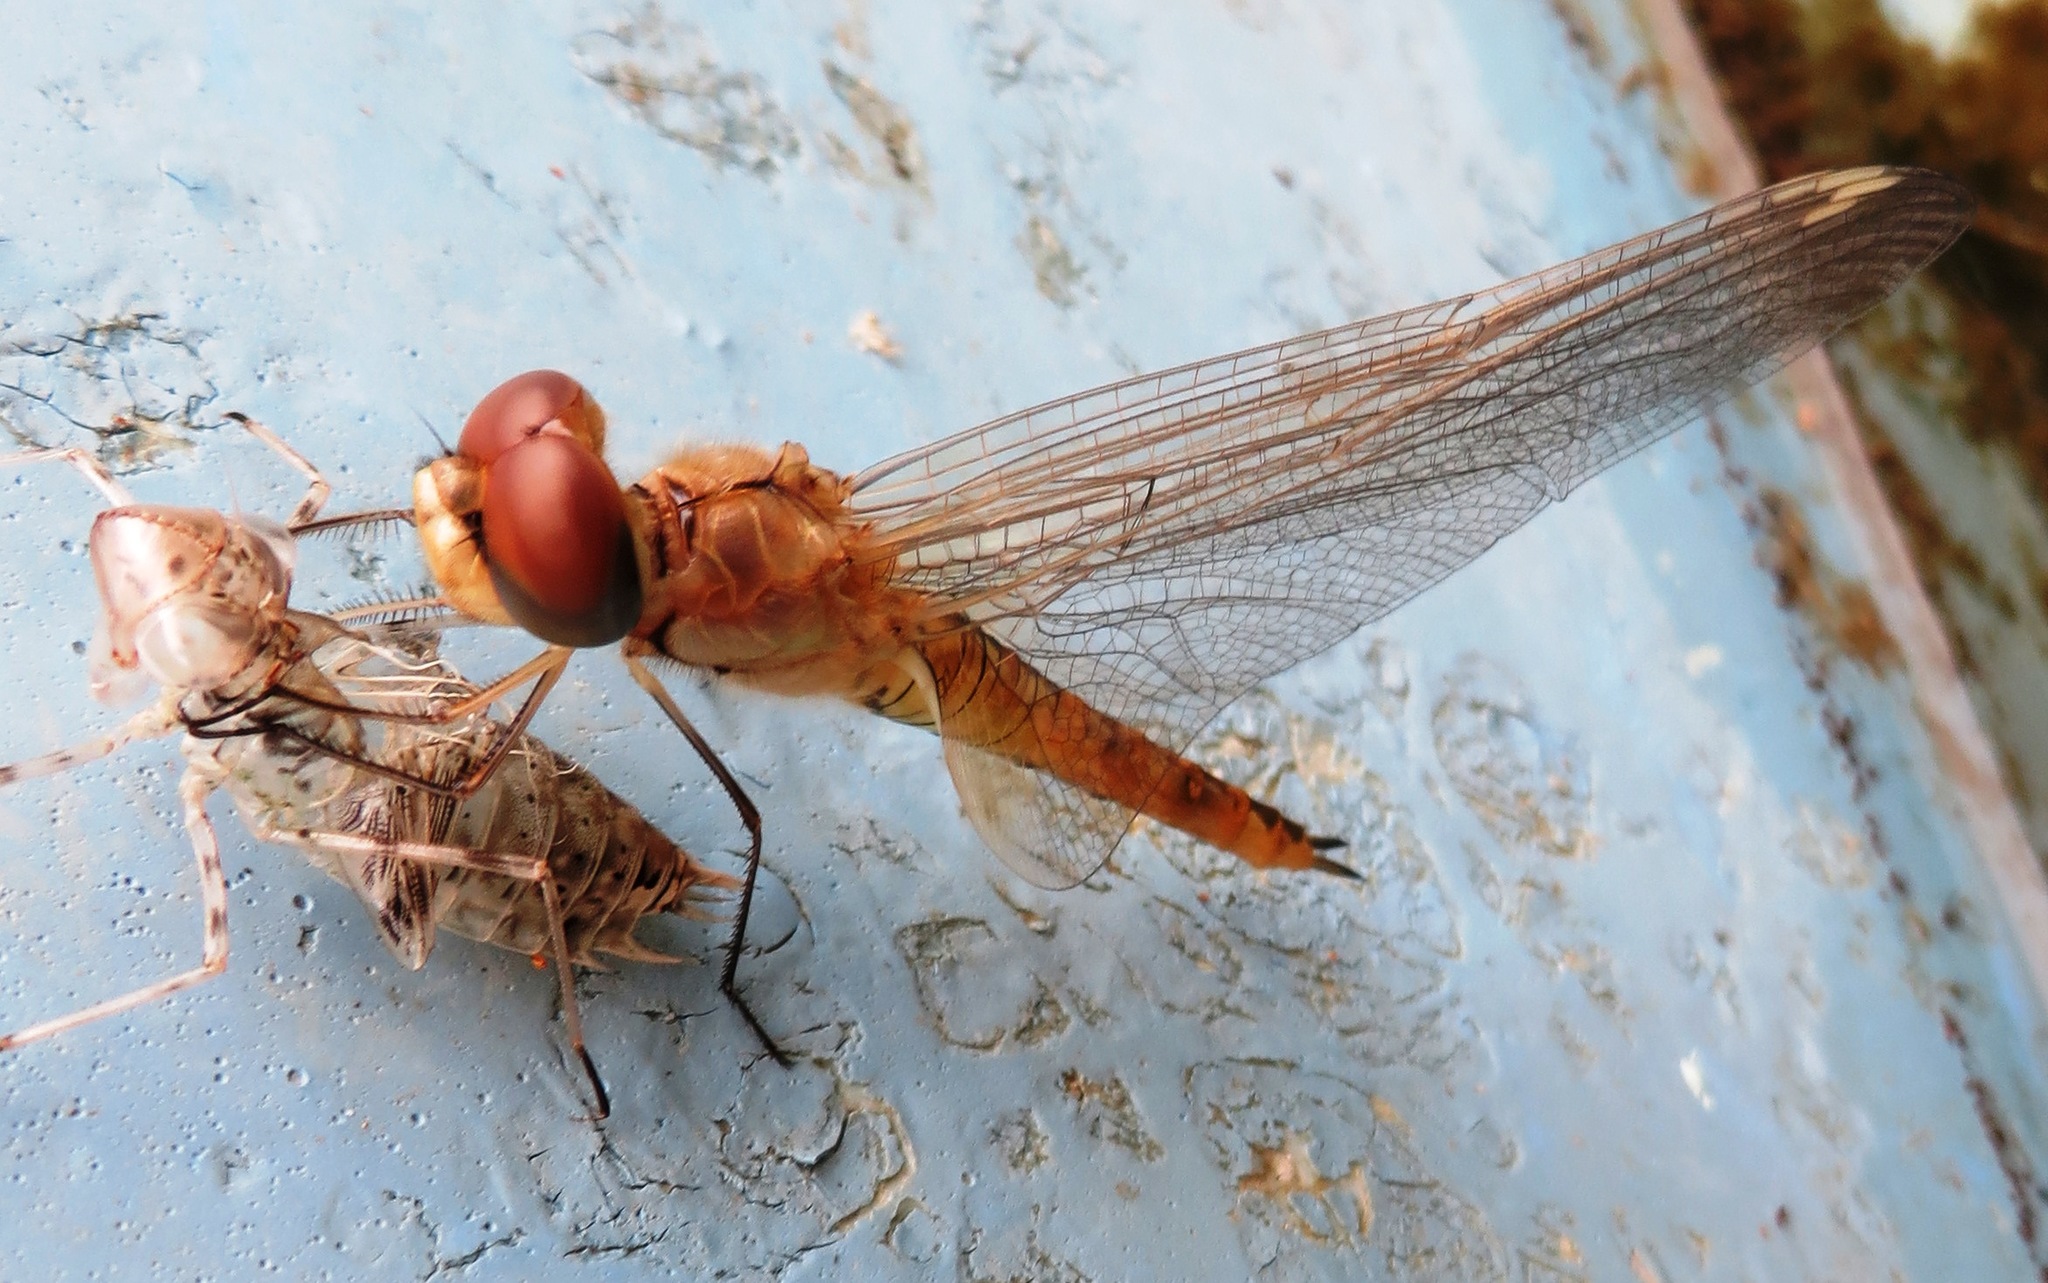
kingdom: Animalia
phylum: Arthropoda
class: Insecta
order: Odonata
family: Libellulidae
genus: Pantala
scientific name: Pantala flavescens
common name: Wandering glider
